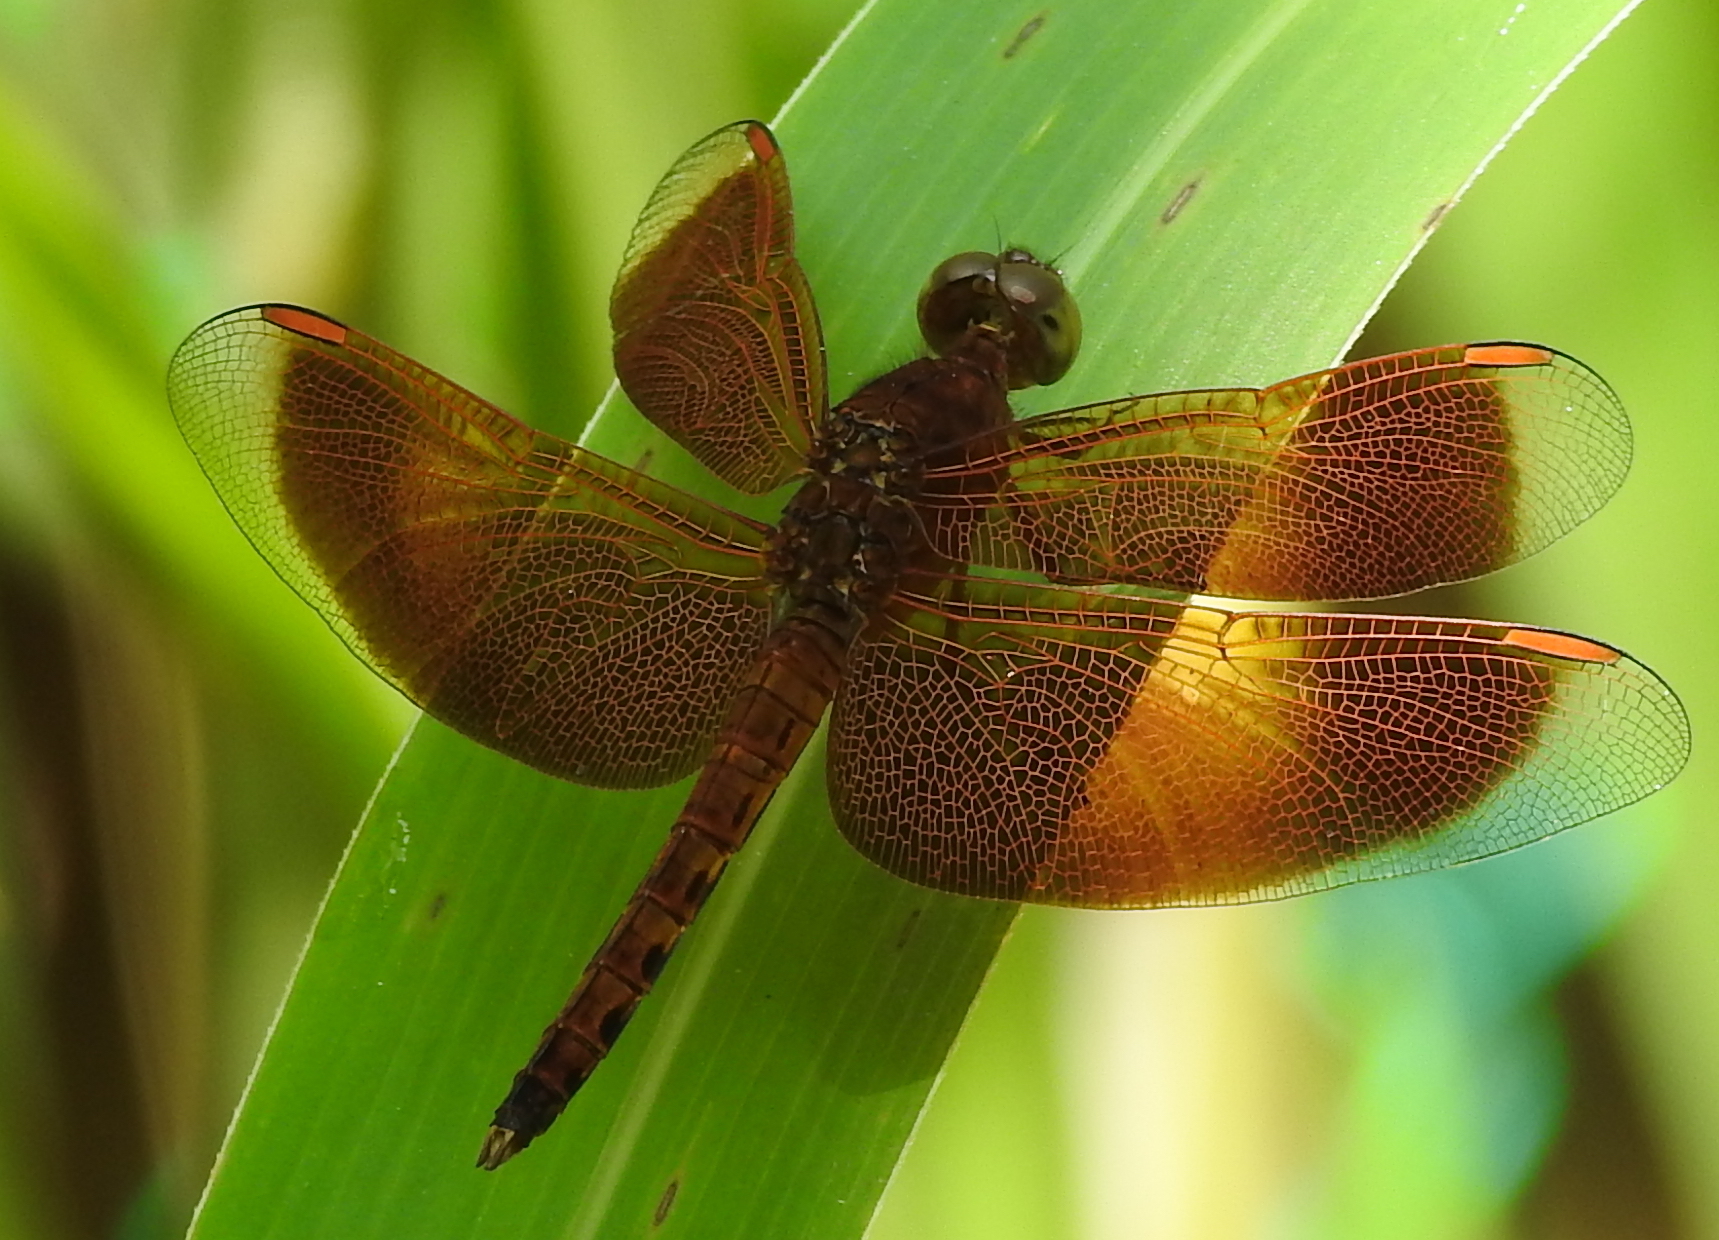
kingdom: Animalia
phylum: Arthropoda
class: Insecta
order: Odonata
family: Libellulidae
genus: Neurothemis
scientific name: Neurothemis fluctuans
